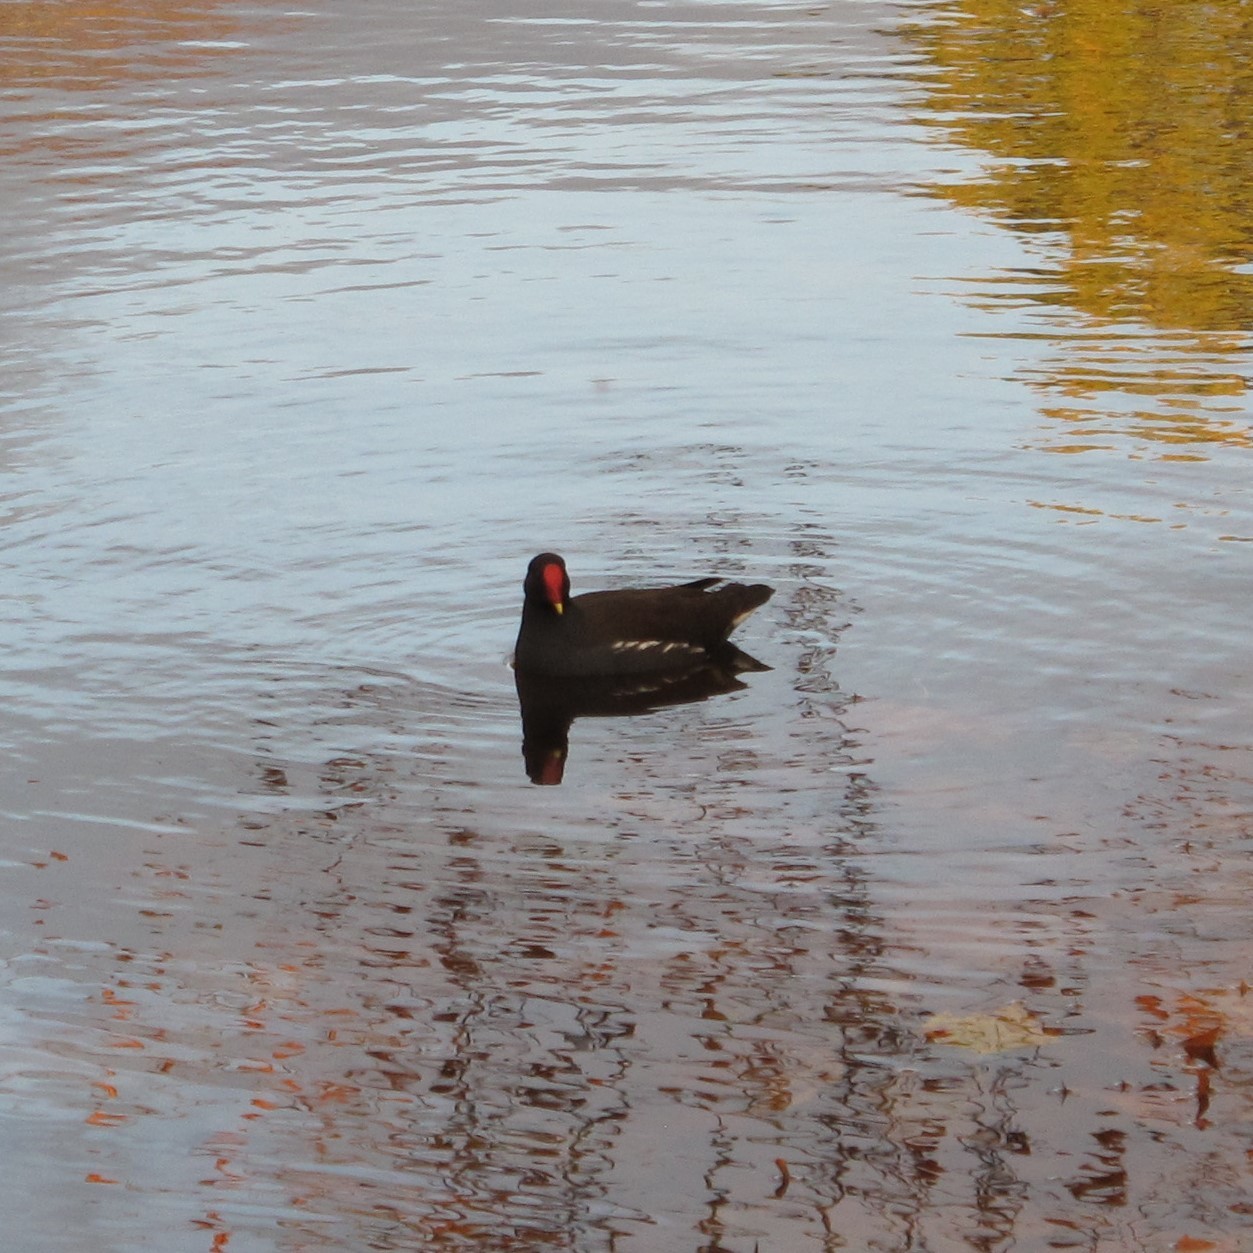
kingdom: Animalia
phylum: Chordata
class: Aves
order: Gruiformes
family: Rallidae
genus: Gallinula
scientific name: Gallinula chloropus
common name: Common moorhen
